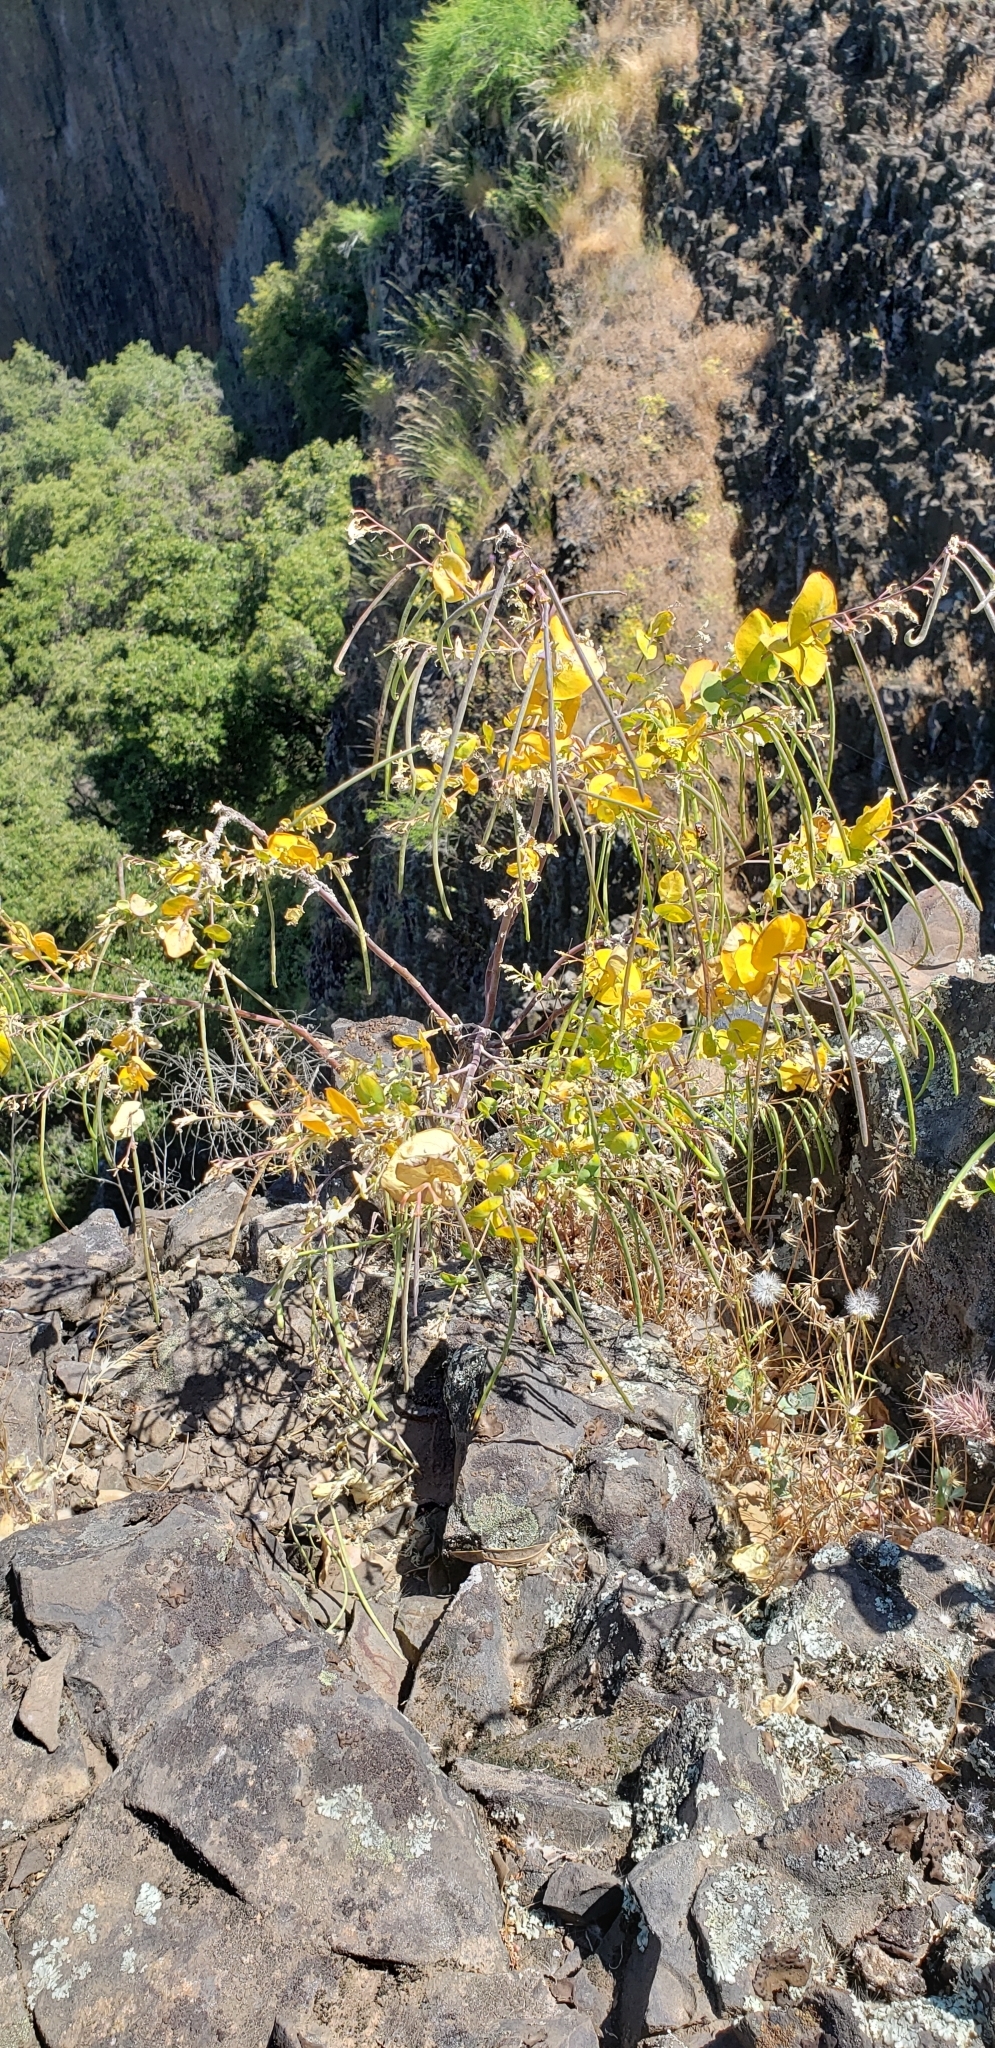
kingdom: Plantae
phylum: Tracheophyta
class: Magnoliopsida
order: Brassicales
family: Brassicaceae
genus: Streptanthus
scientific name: Streptanthus tortuosus
